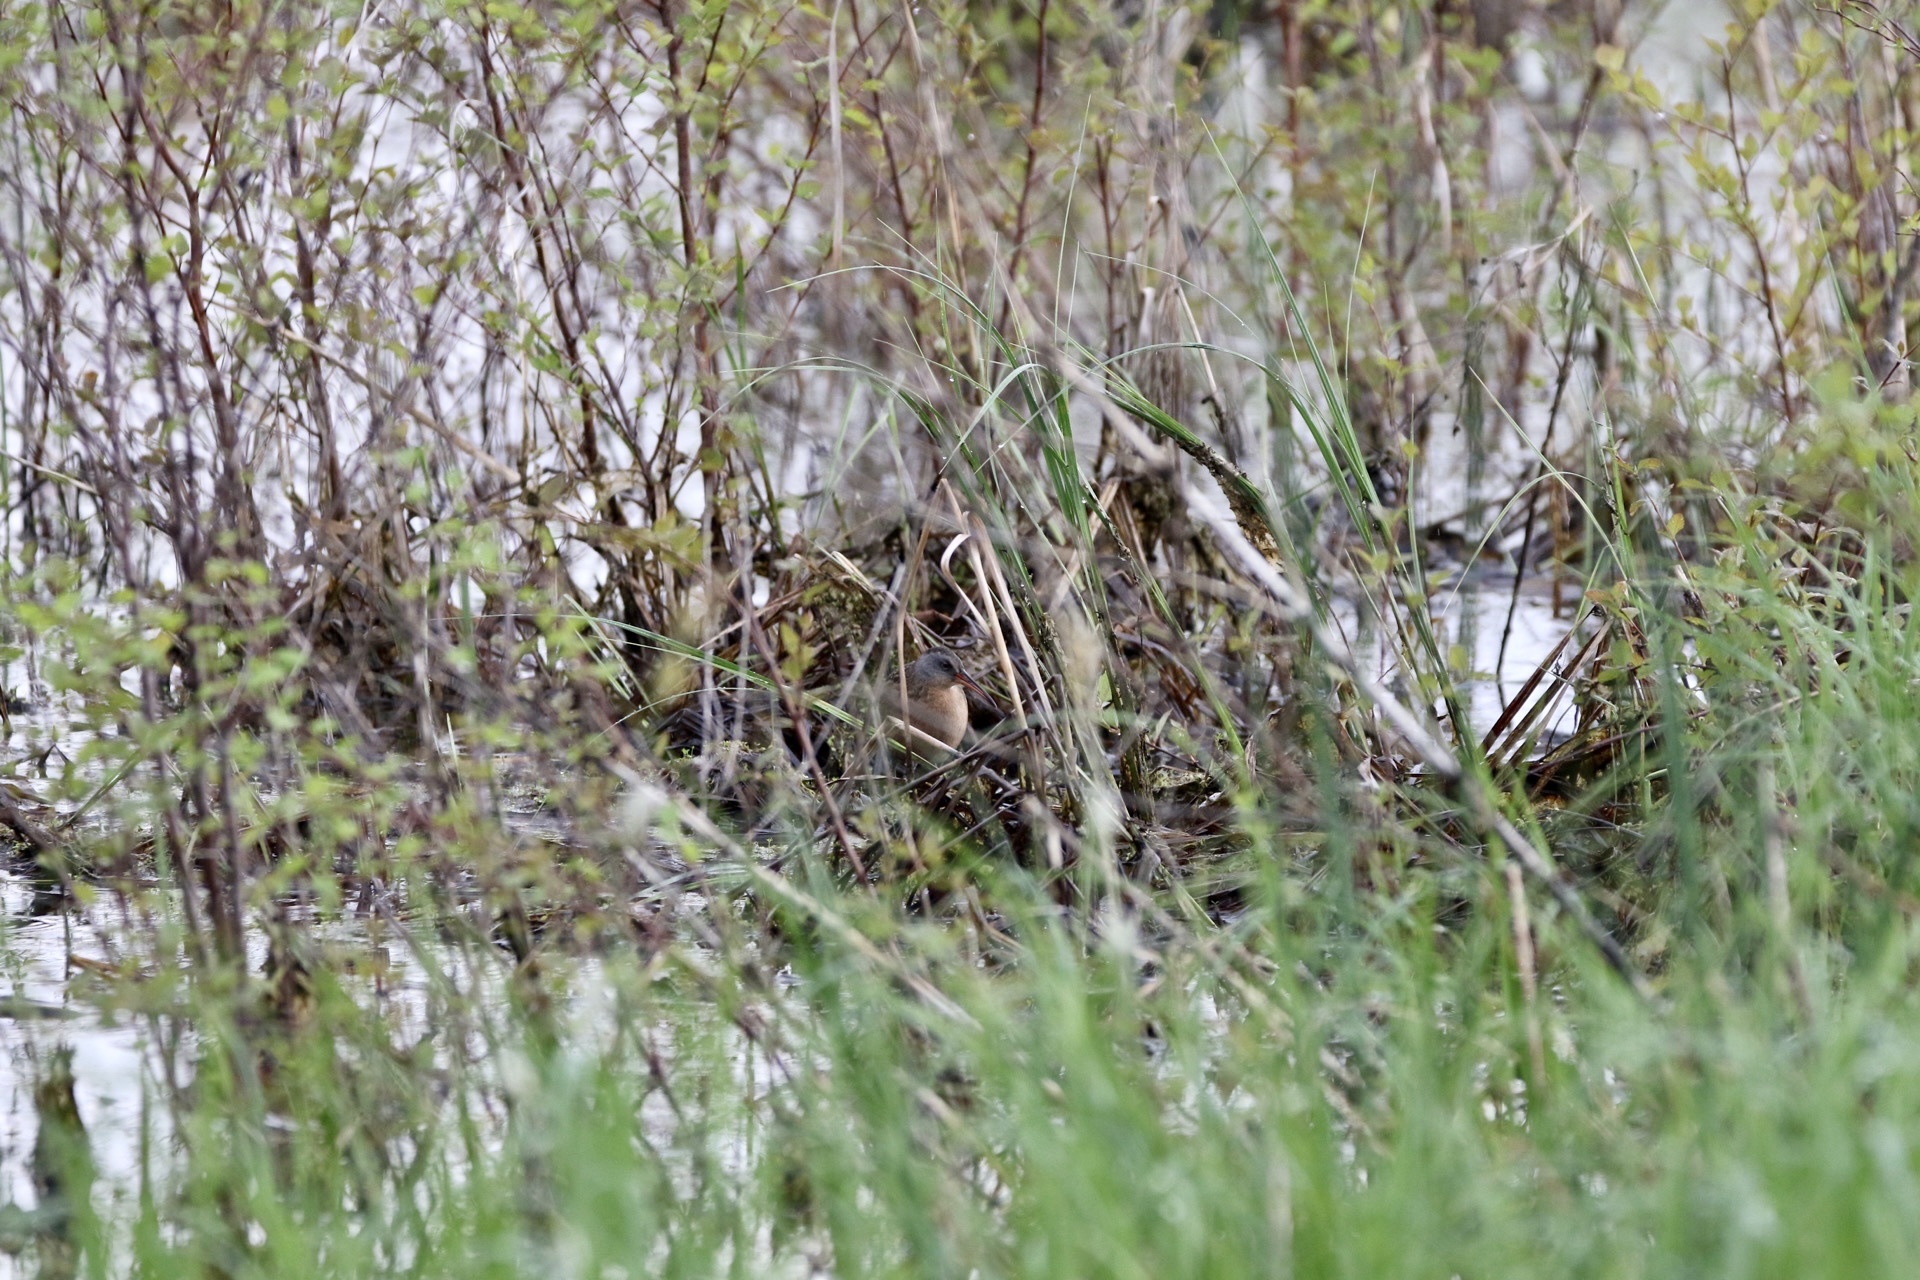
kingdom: Animalia
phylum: Chordata
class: Aves
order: Gruiformes
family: Rallidae
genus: Rallus
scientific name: Rallus limicola
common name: Virginia rail
